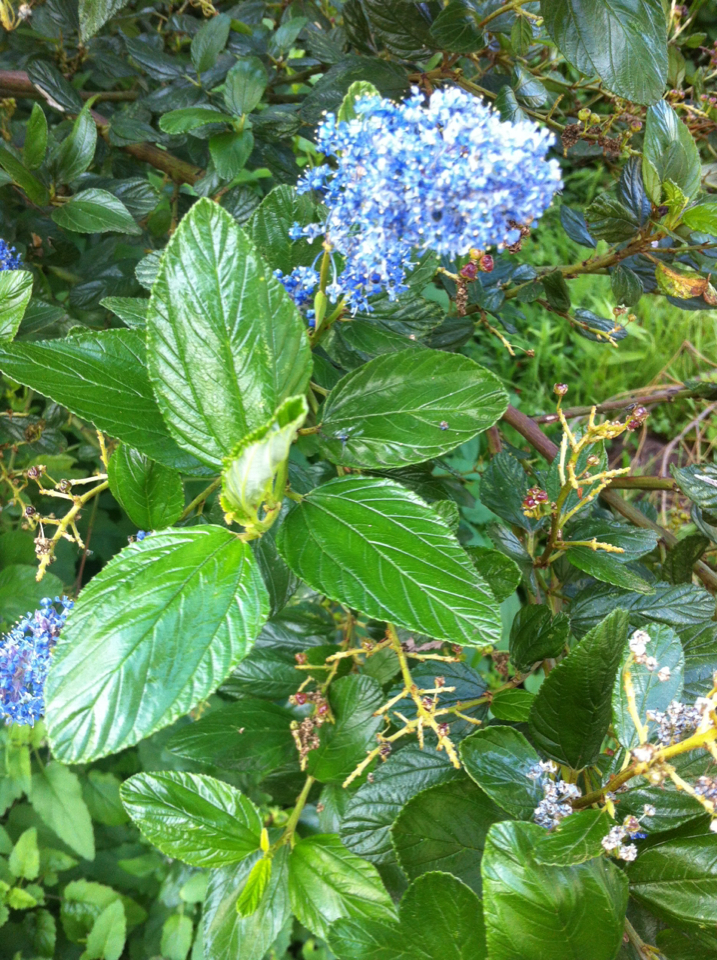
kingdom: Plantae
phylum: Tracheophyta
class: Magnoliopsida
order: Rosales
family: Rhamnaceae
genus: Ceanothus
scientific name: Ceanothus thyrsiflorus
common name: California-lilac
